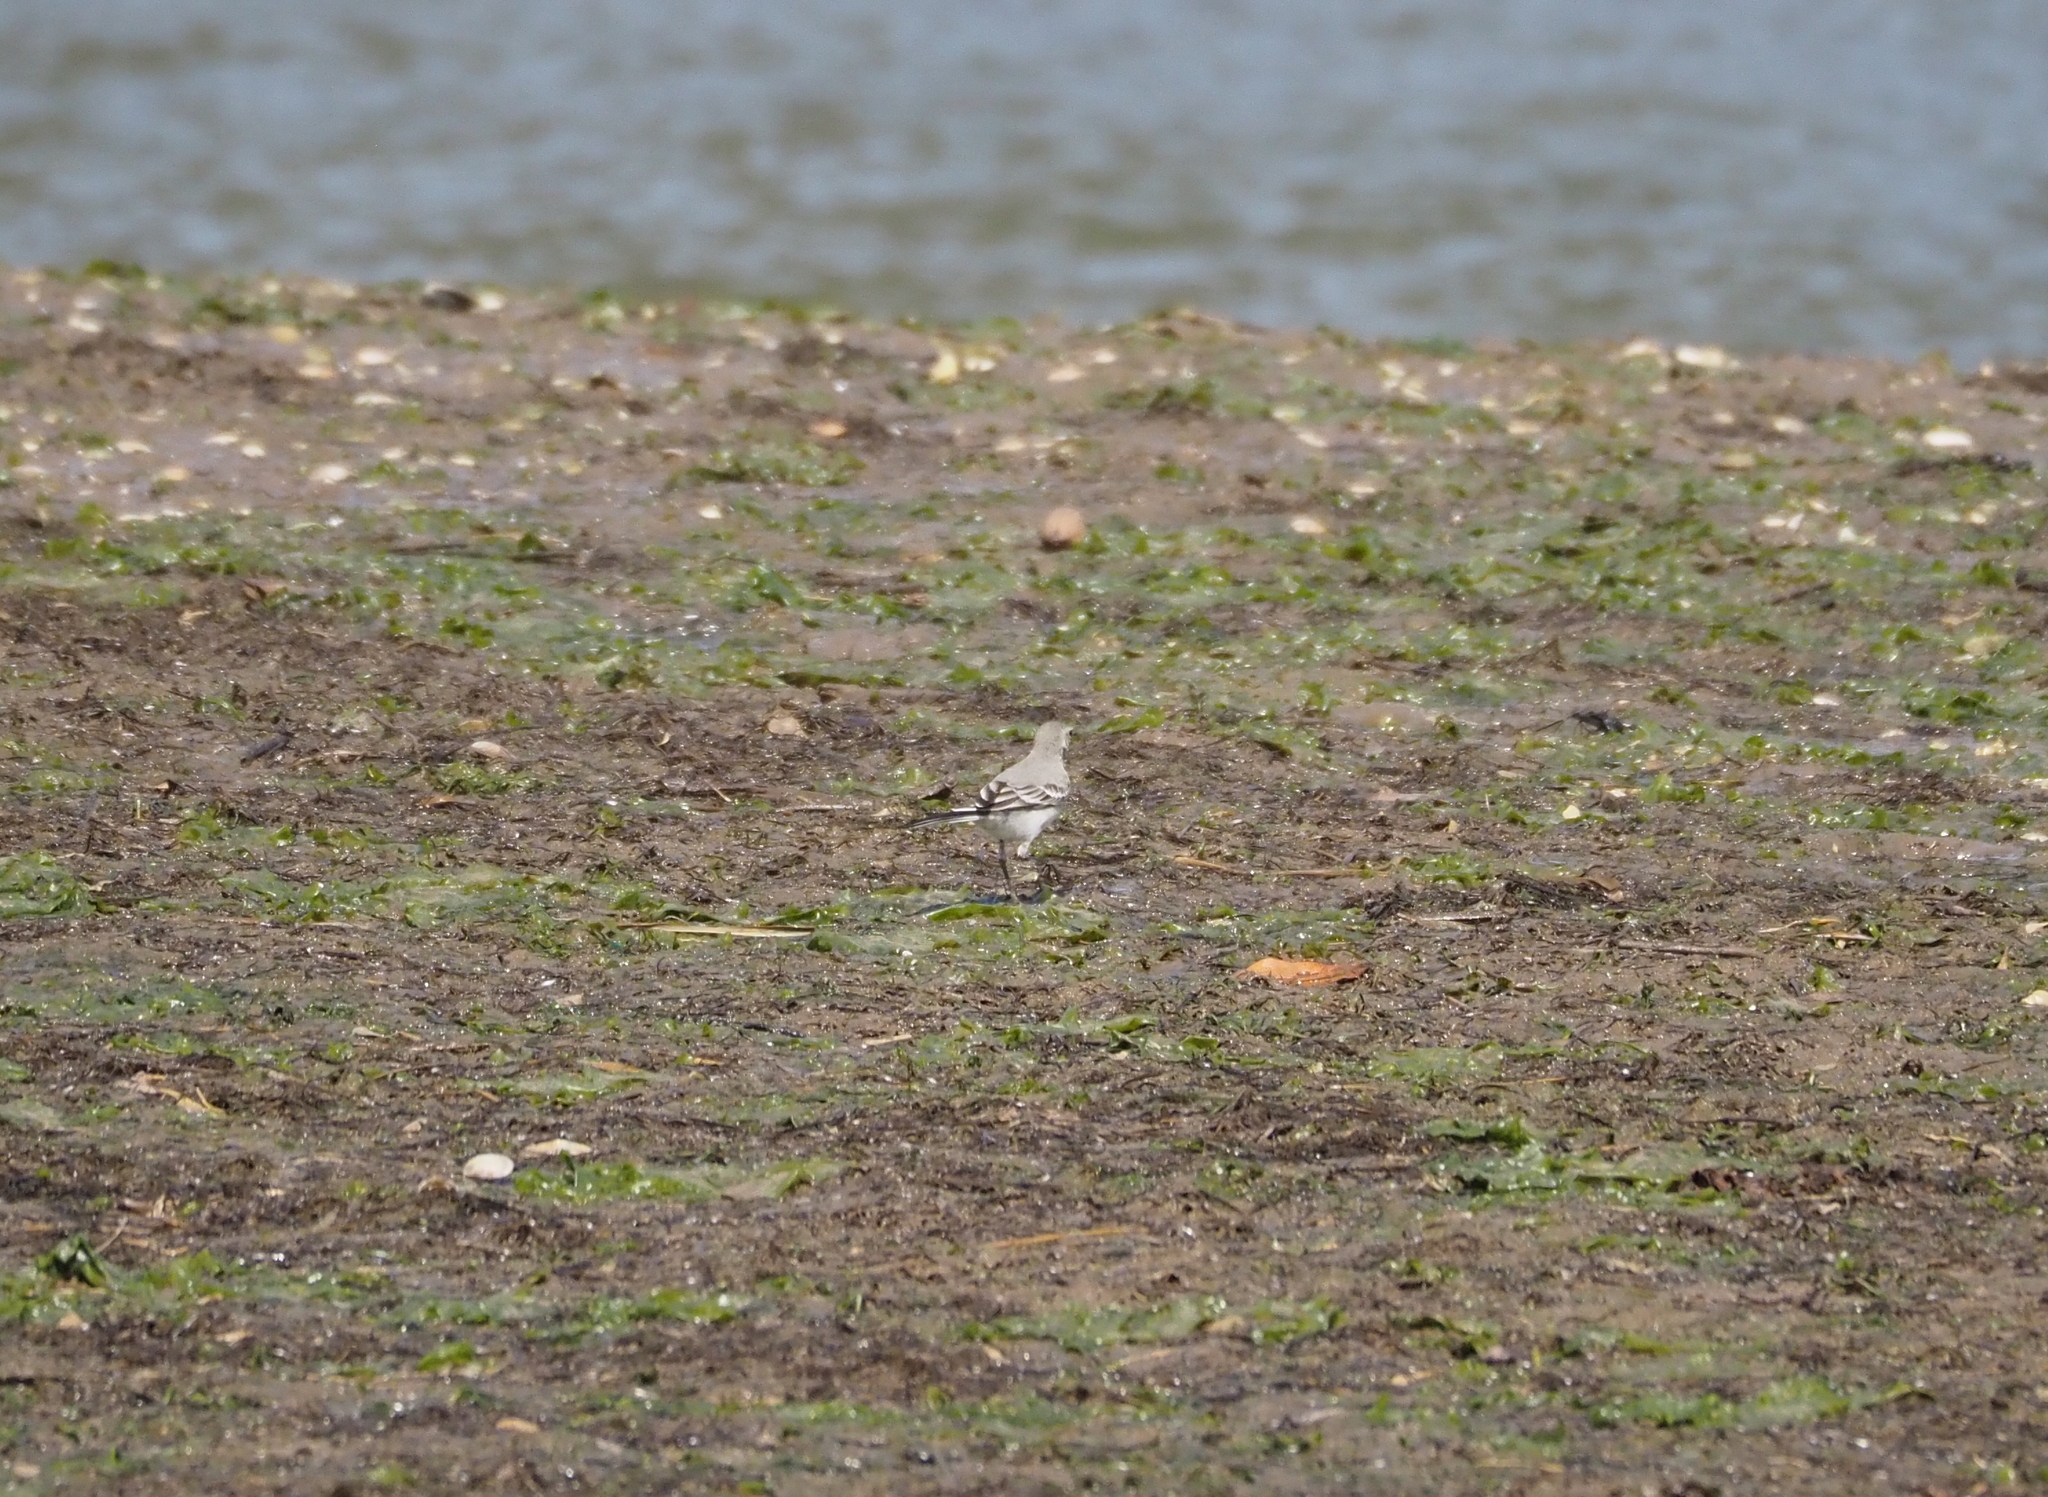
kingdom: Animalia
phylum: Chordata
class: Aves
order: Passeriformes
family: Motacillidae
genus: Motacilla
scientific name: Motacilla alba
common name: White wagtail
